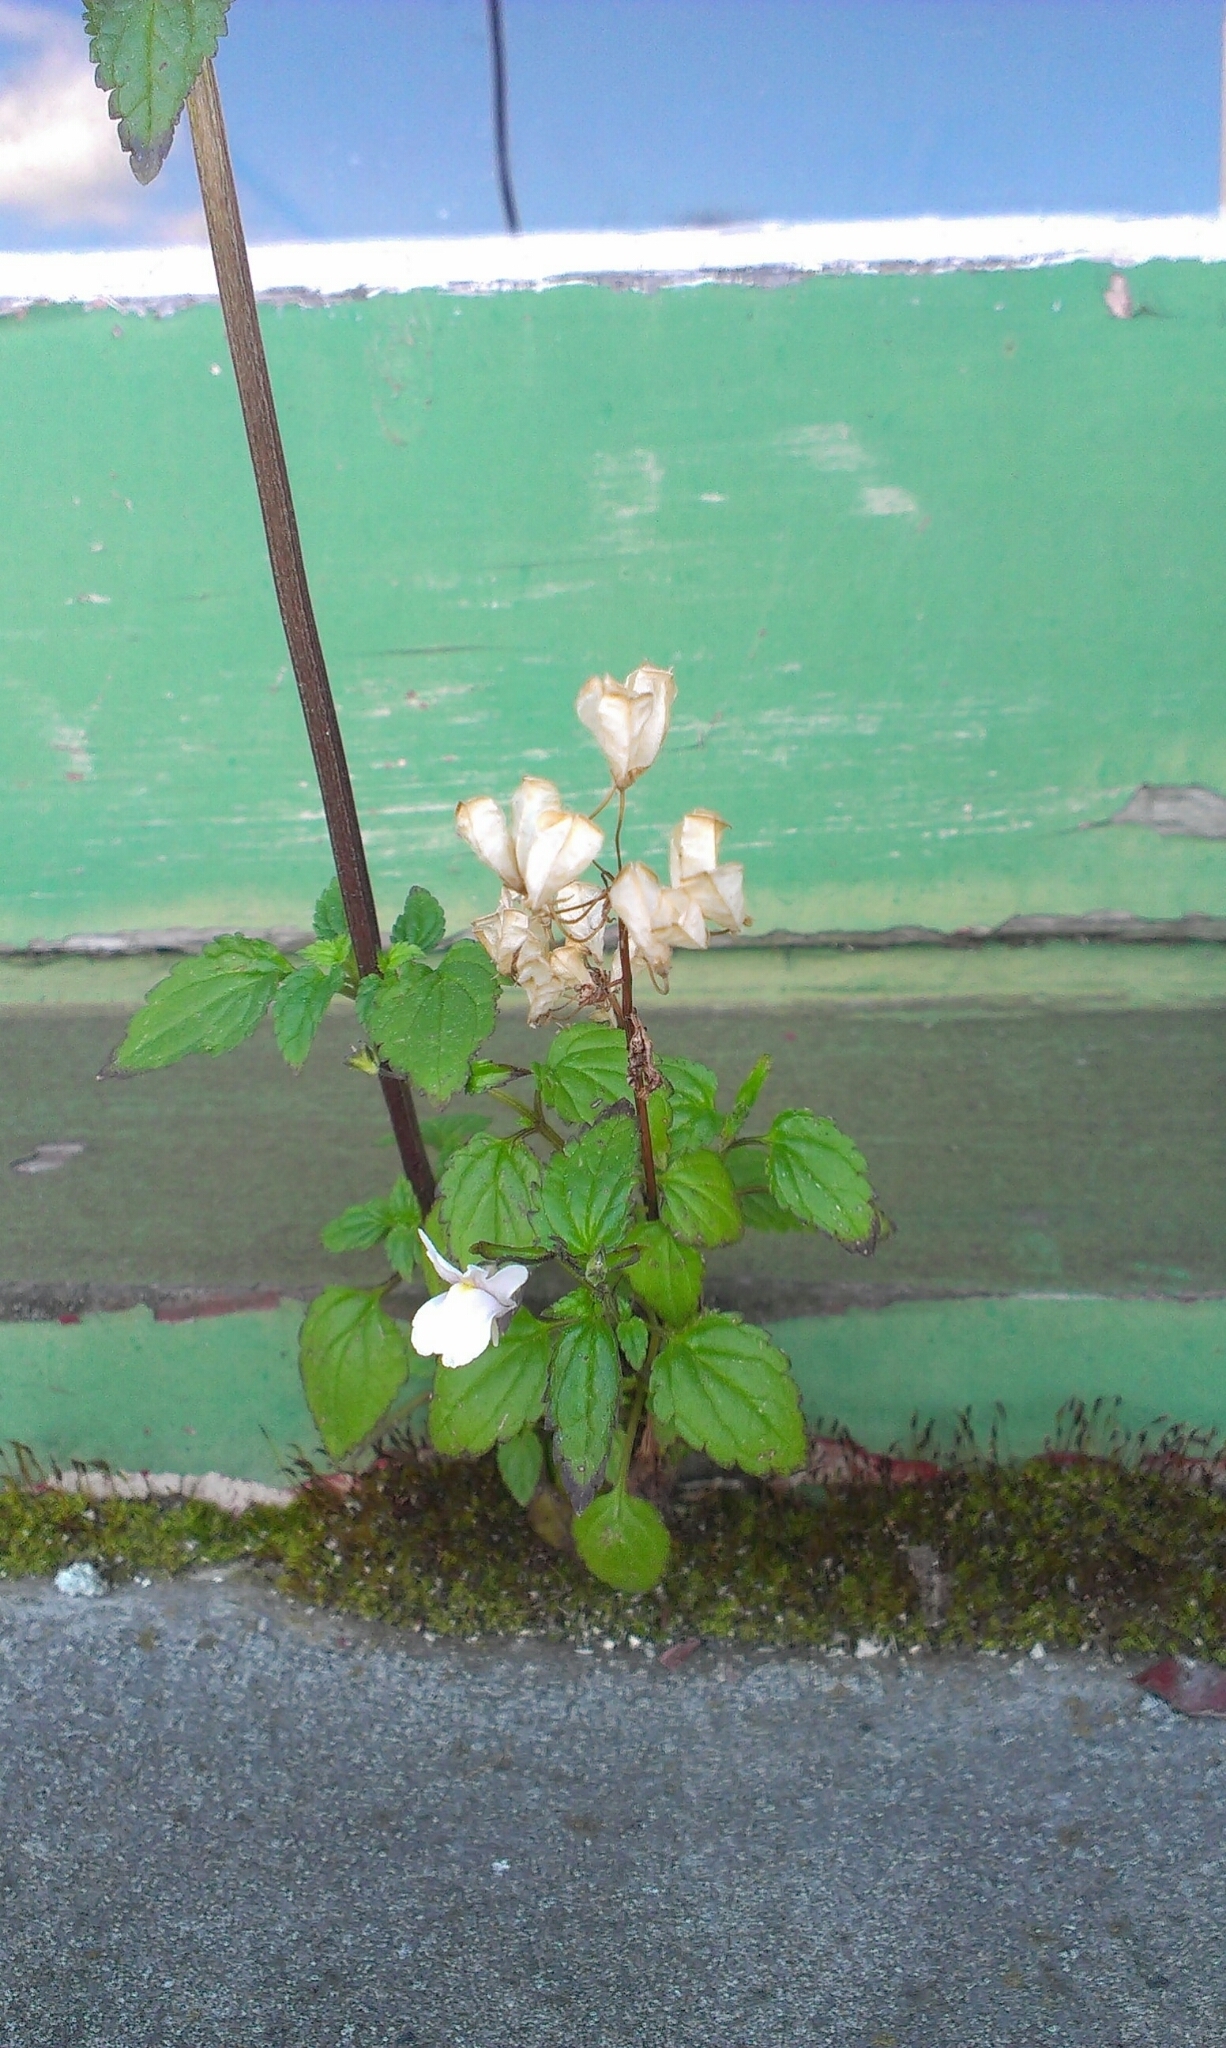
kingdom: Plantae
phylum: Tracheophyta
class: Magnoliopsida
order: Lamiales
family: Scrophulariaceae
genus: Nemesia
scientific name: Nemesia floribunda
